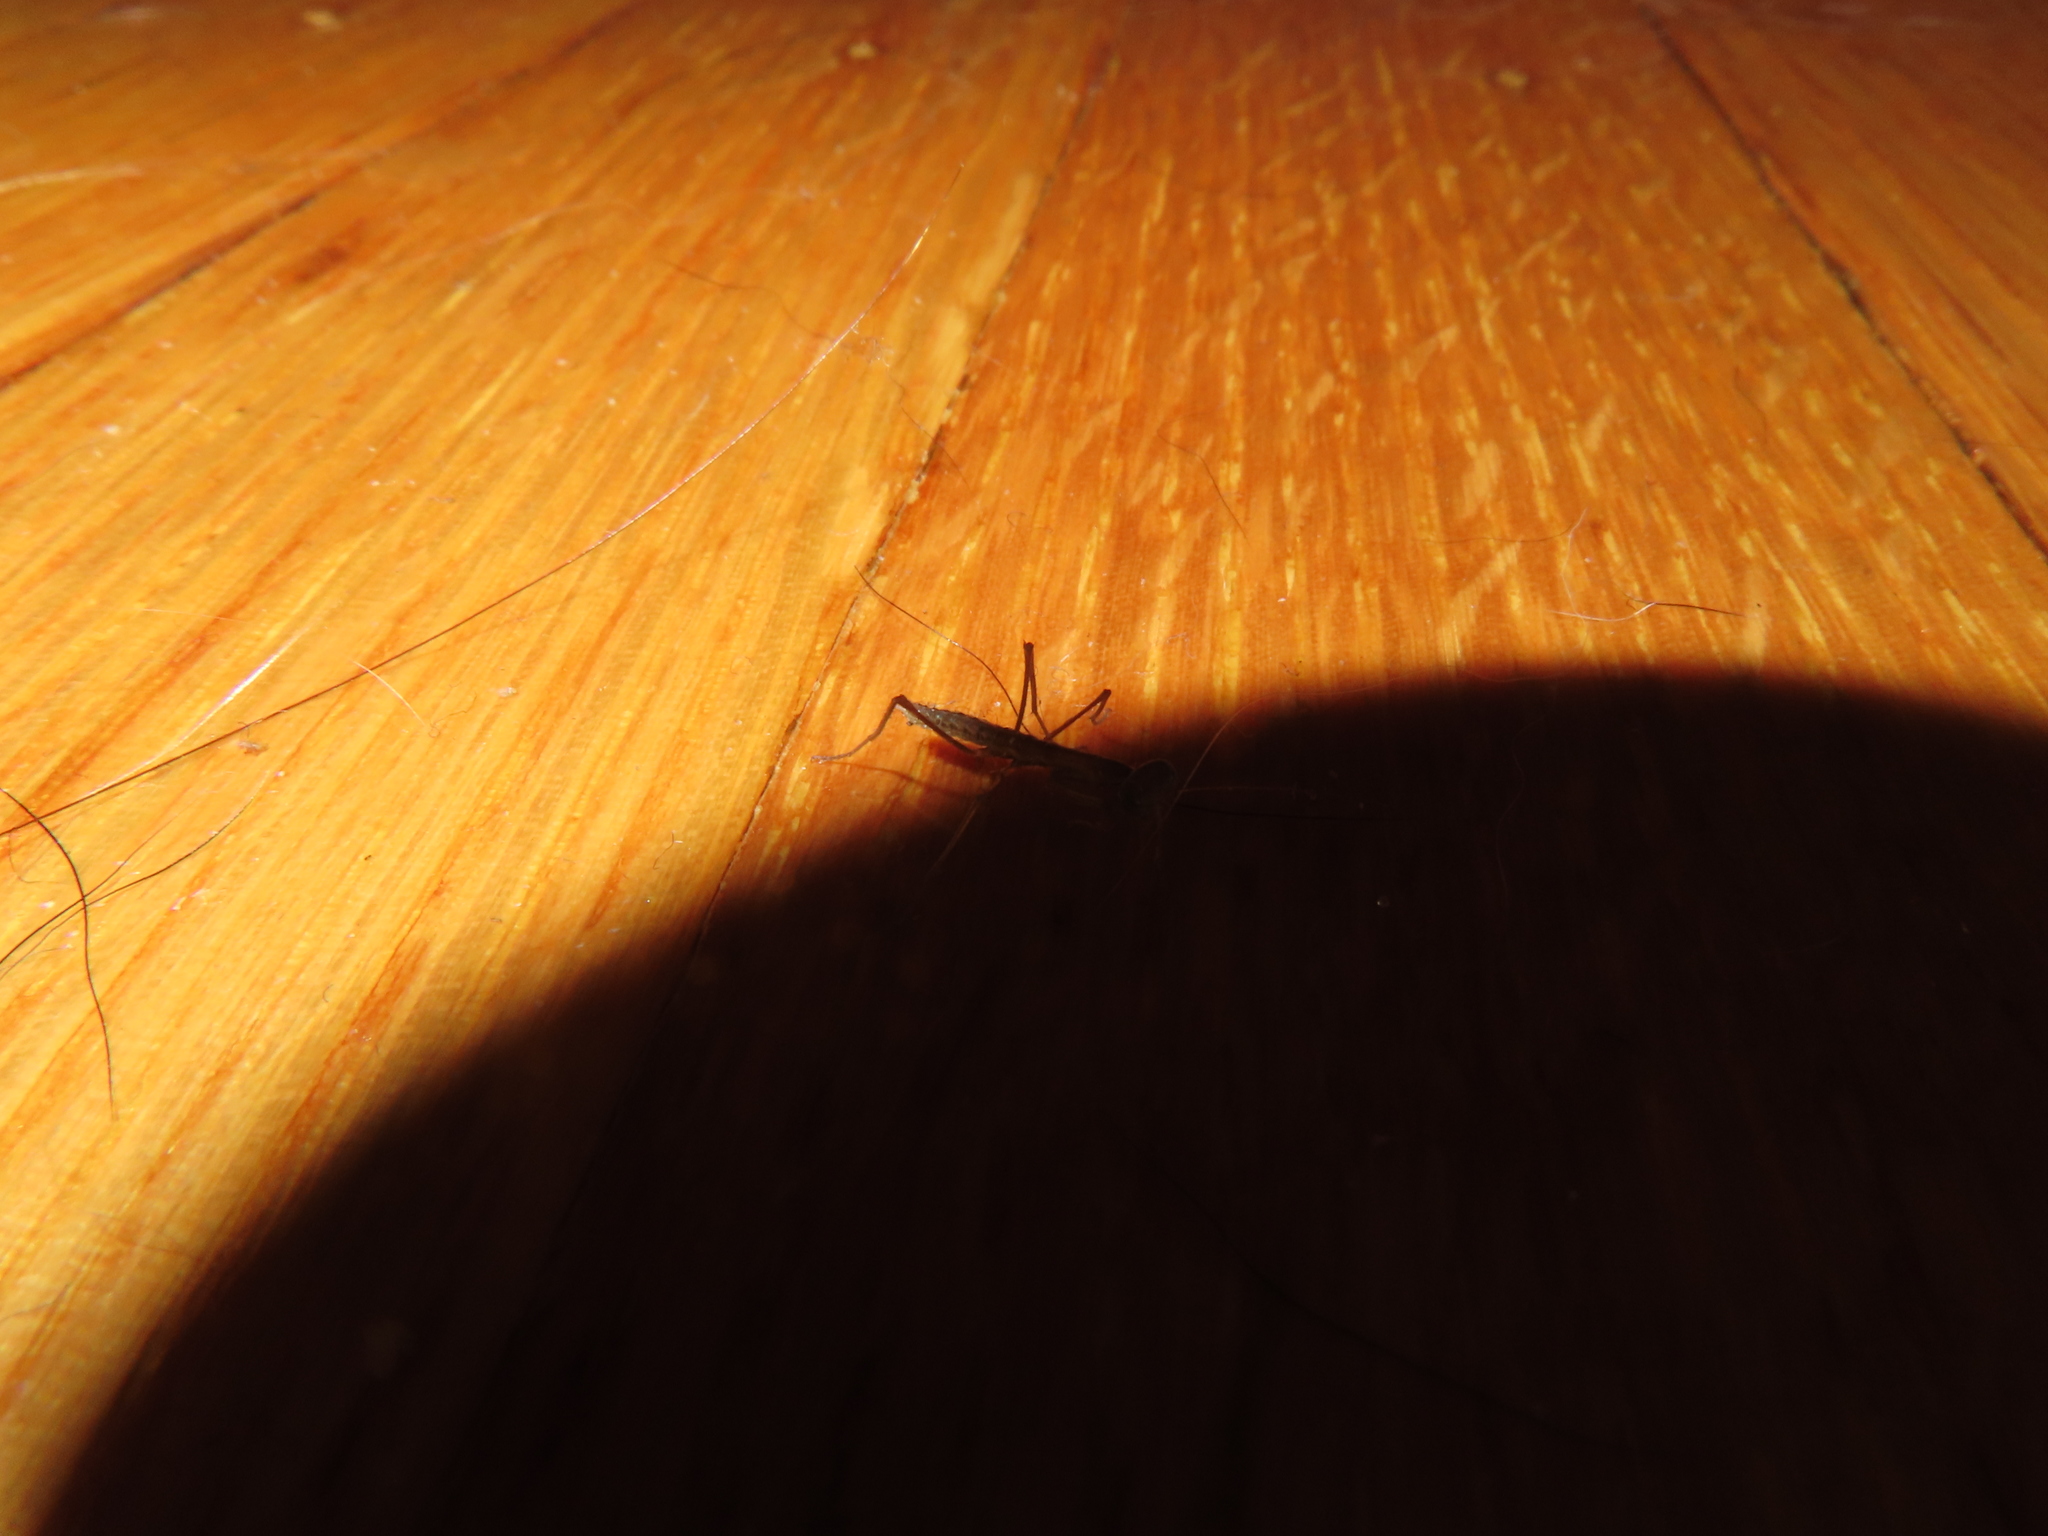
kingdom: Animalia
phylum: Arthropoda
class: Insecta
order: Mantodea
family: Mantidae
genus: Tenodera
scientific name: Tenodera sinensis
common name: Chinese mantis
